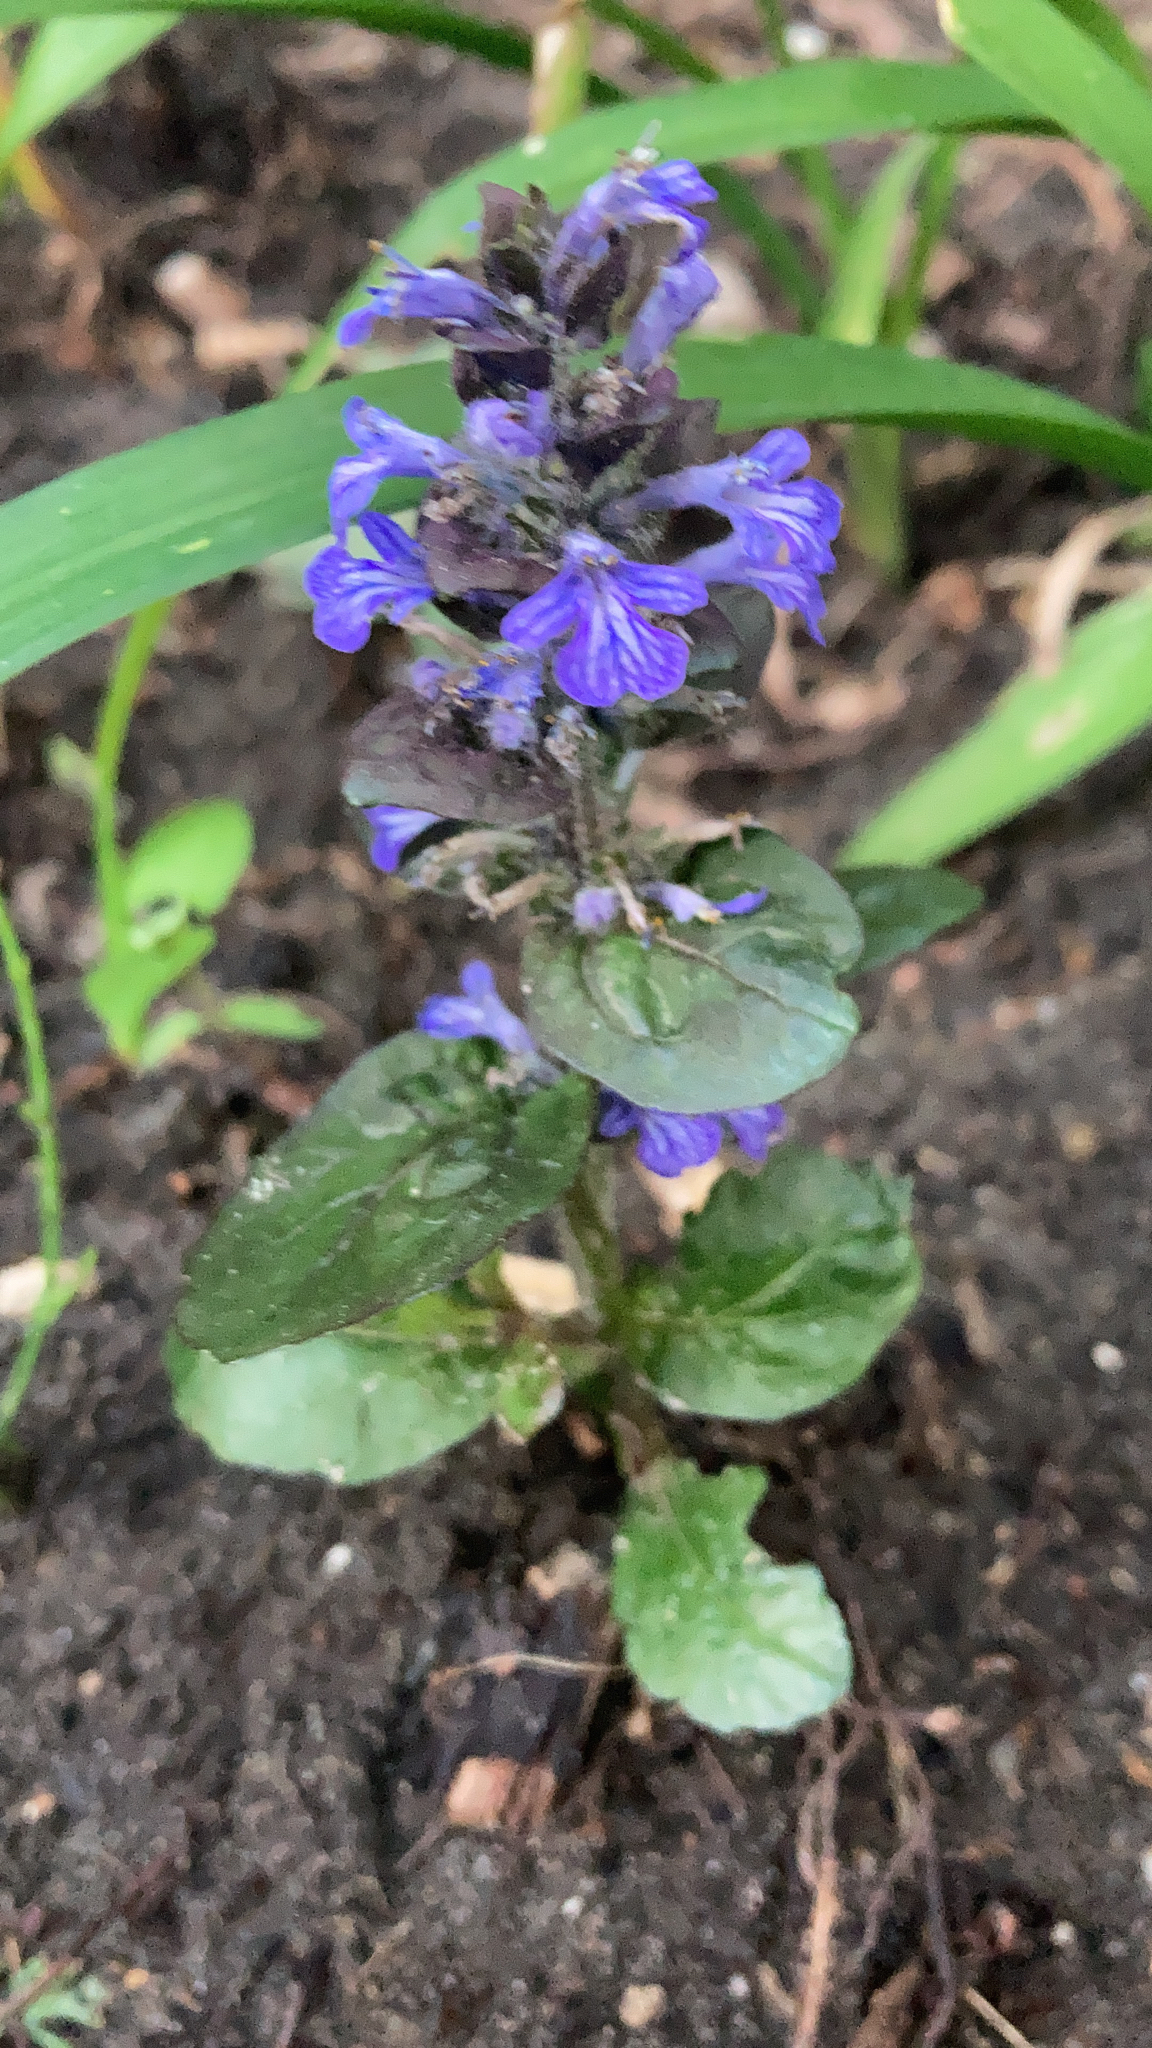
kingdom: Plantae
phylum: Tracheophyta
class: Magnoliopsida
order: Lamiales
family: Lamiaceae
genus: Ajuga
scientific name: Ajuga reptans
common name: Bugle
